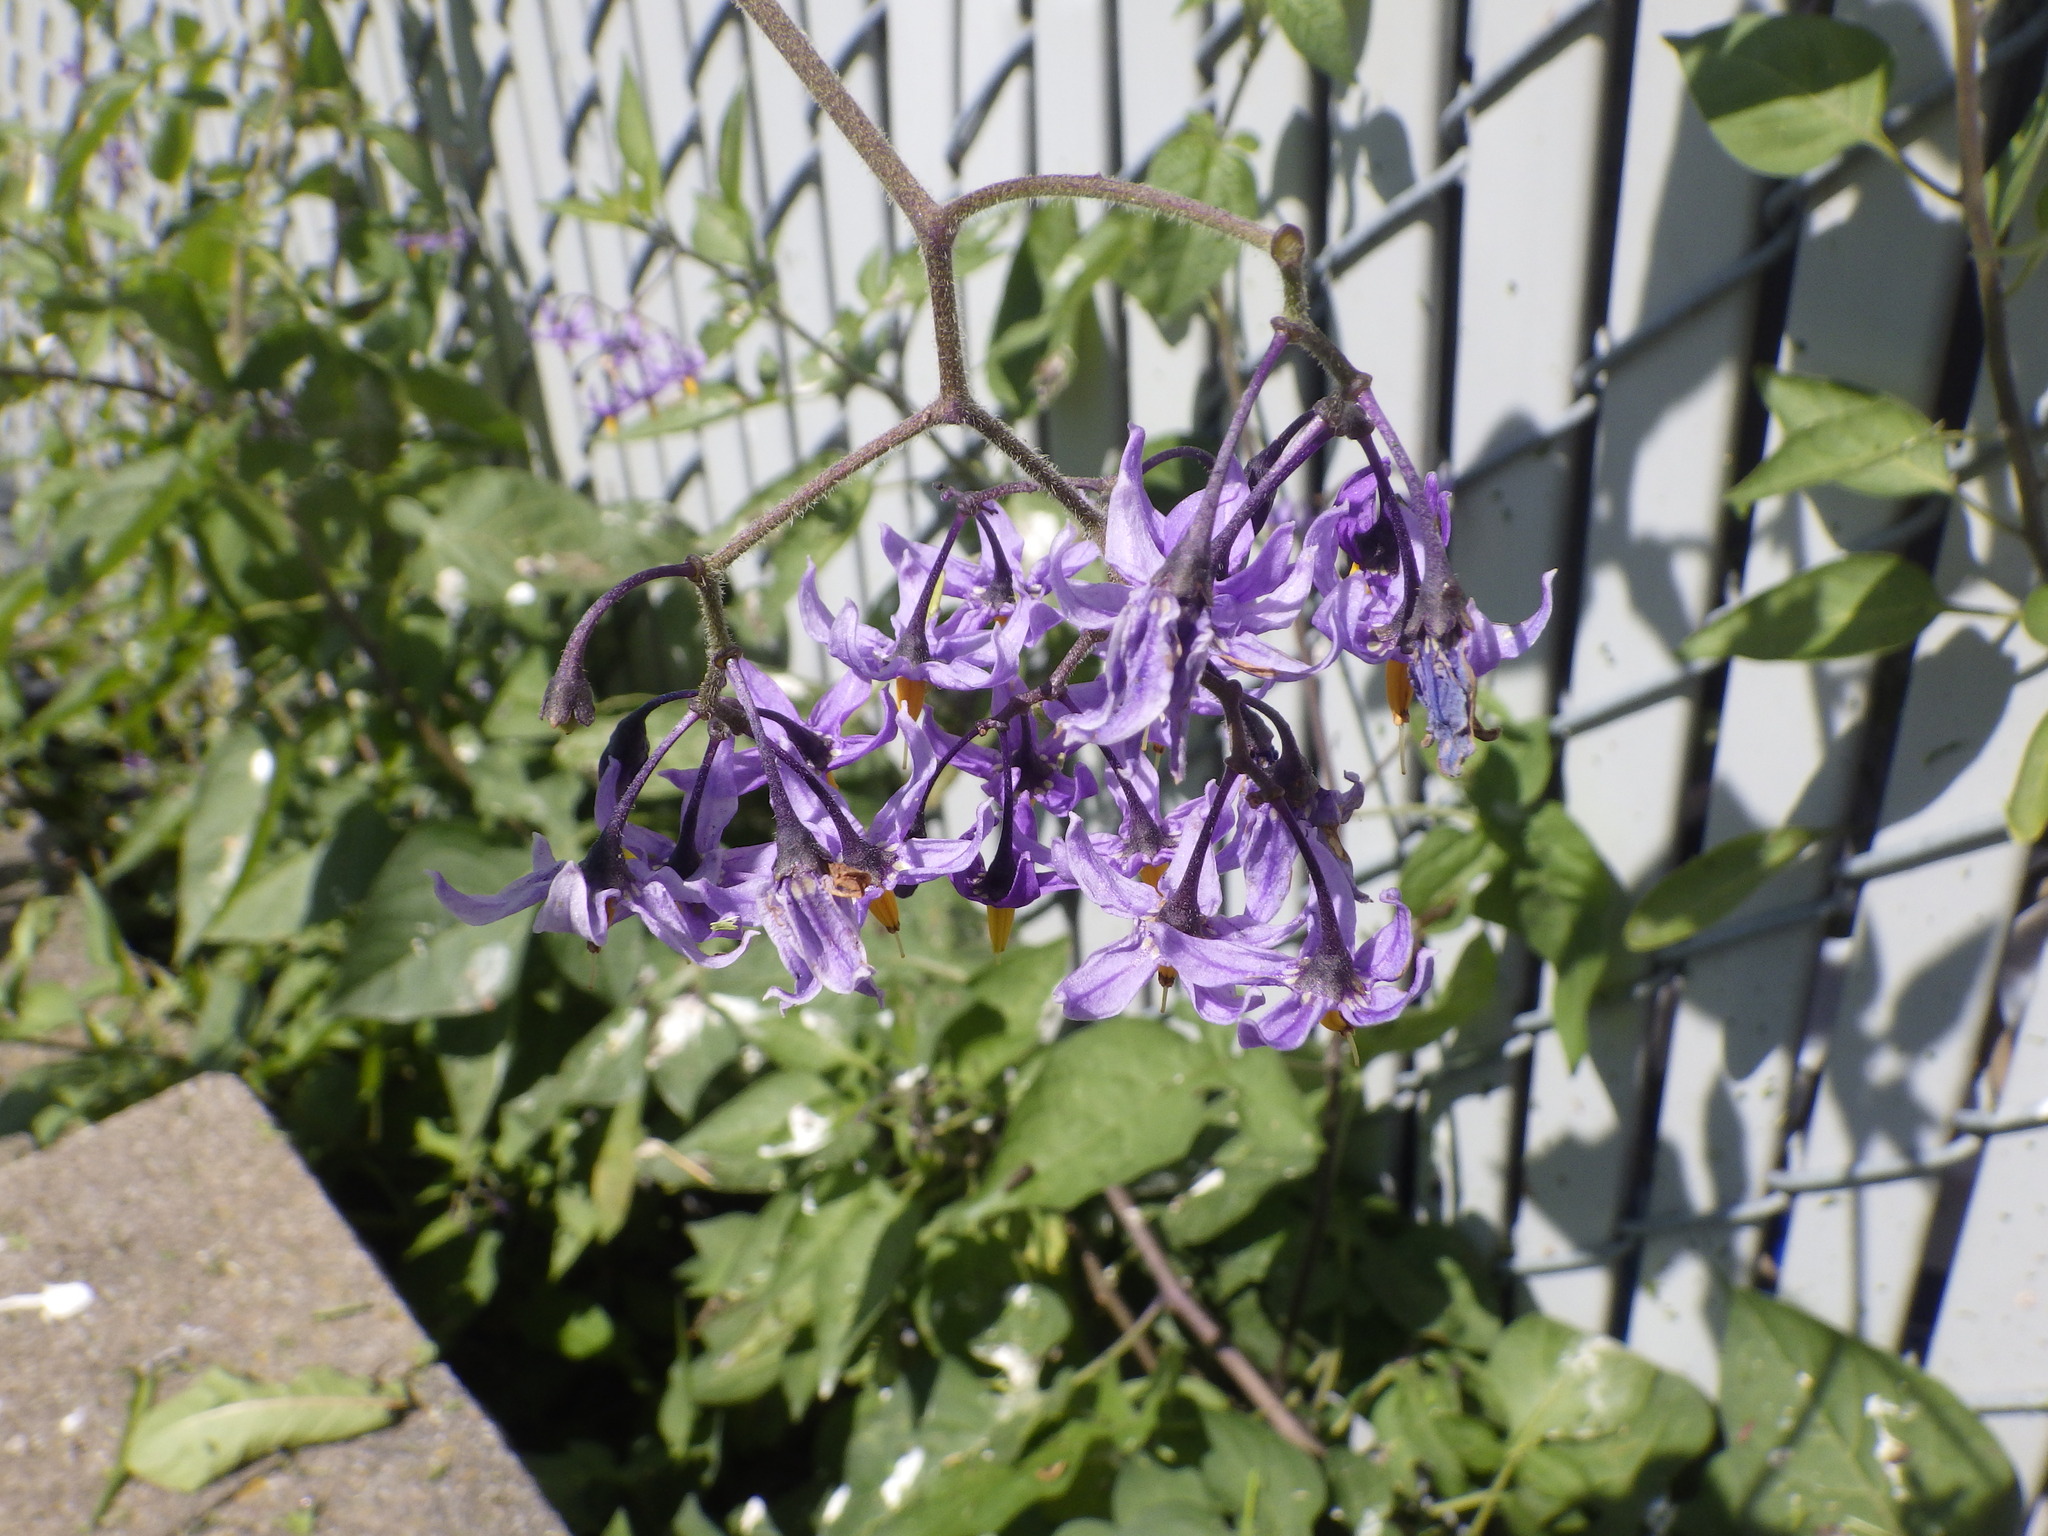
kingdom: Plantae
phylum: Tracheophyta
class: Magnoliopsida
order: Solanales
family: Solanaceae
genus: Solanum
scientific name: Solanum dulcamara
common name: Climbing nightshade
